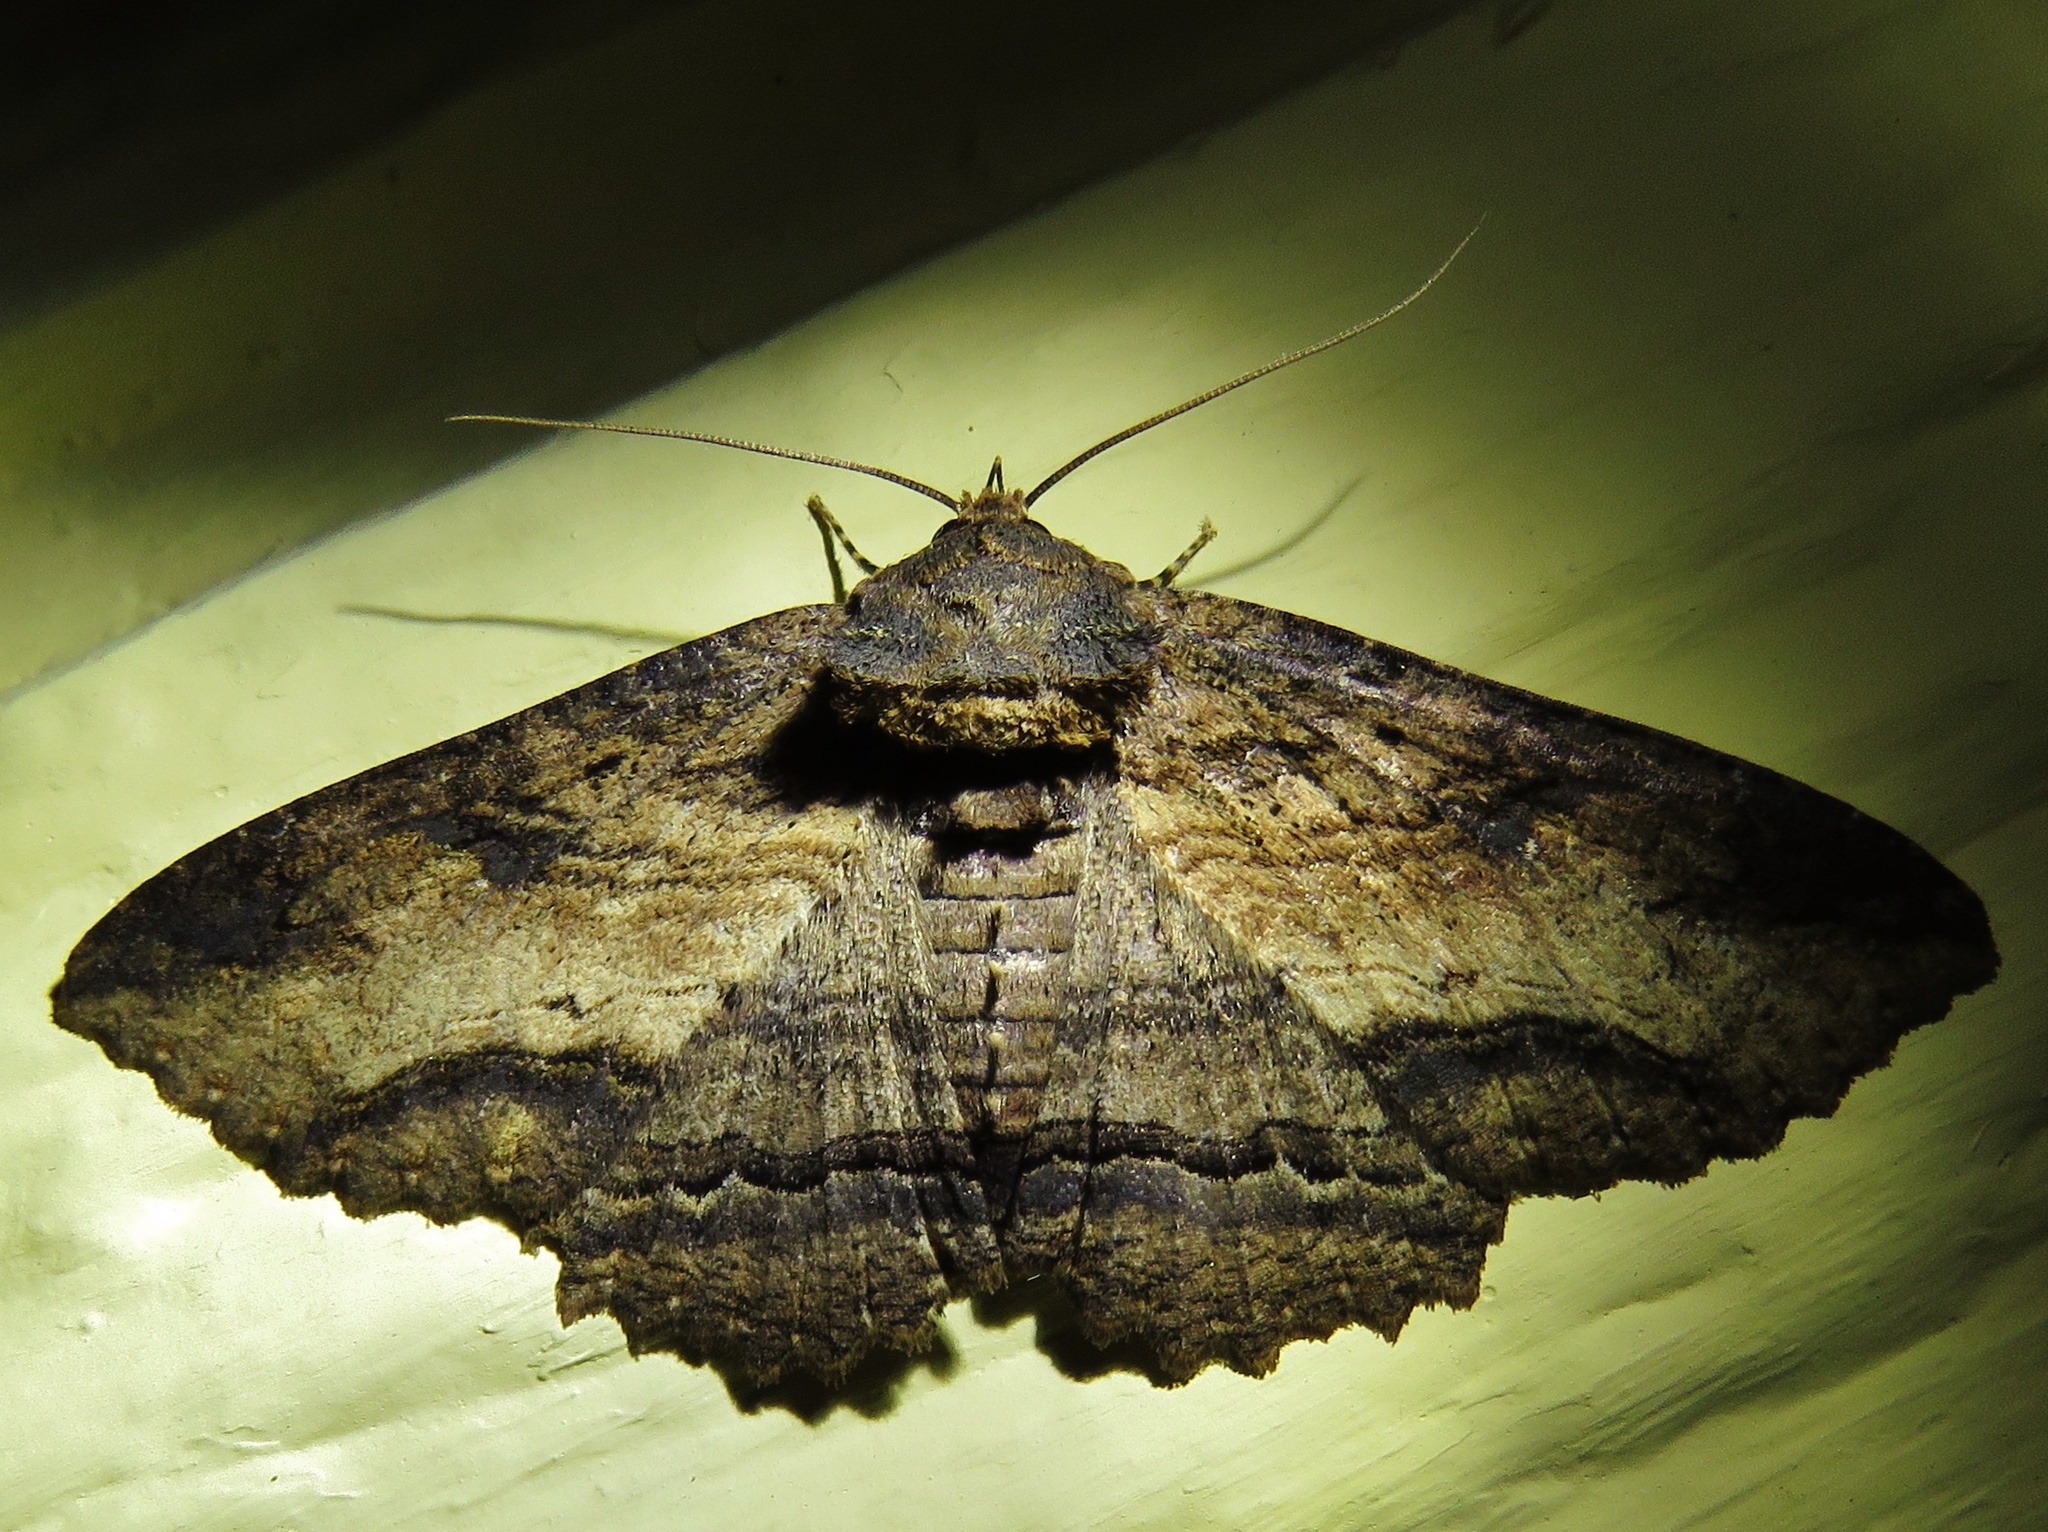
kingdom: Animalia
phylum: Arthropoda
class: Insecta
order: Lepidoptera
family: Erebidae
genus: Zale
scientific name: Zale lunata
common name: Lunate zale moth
